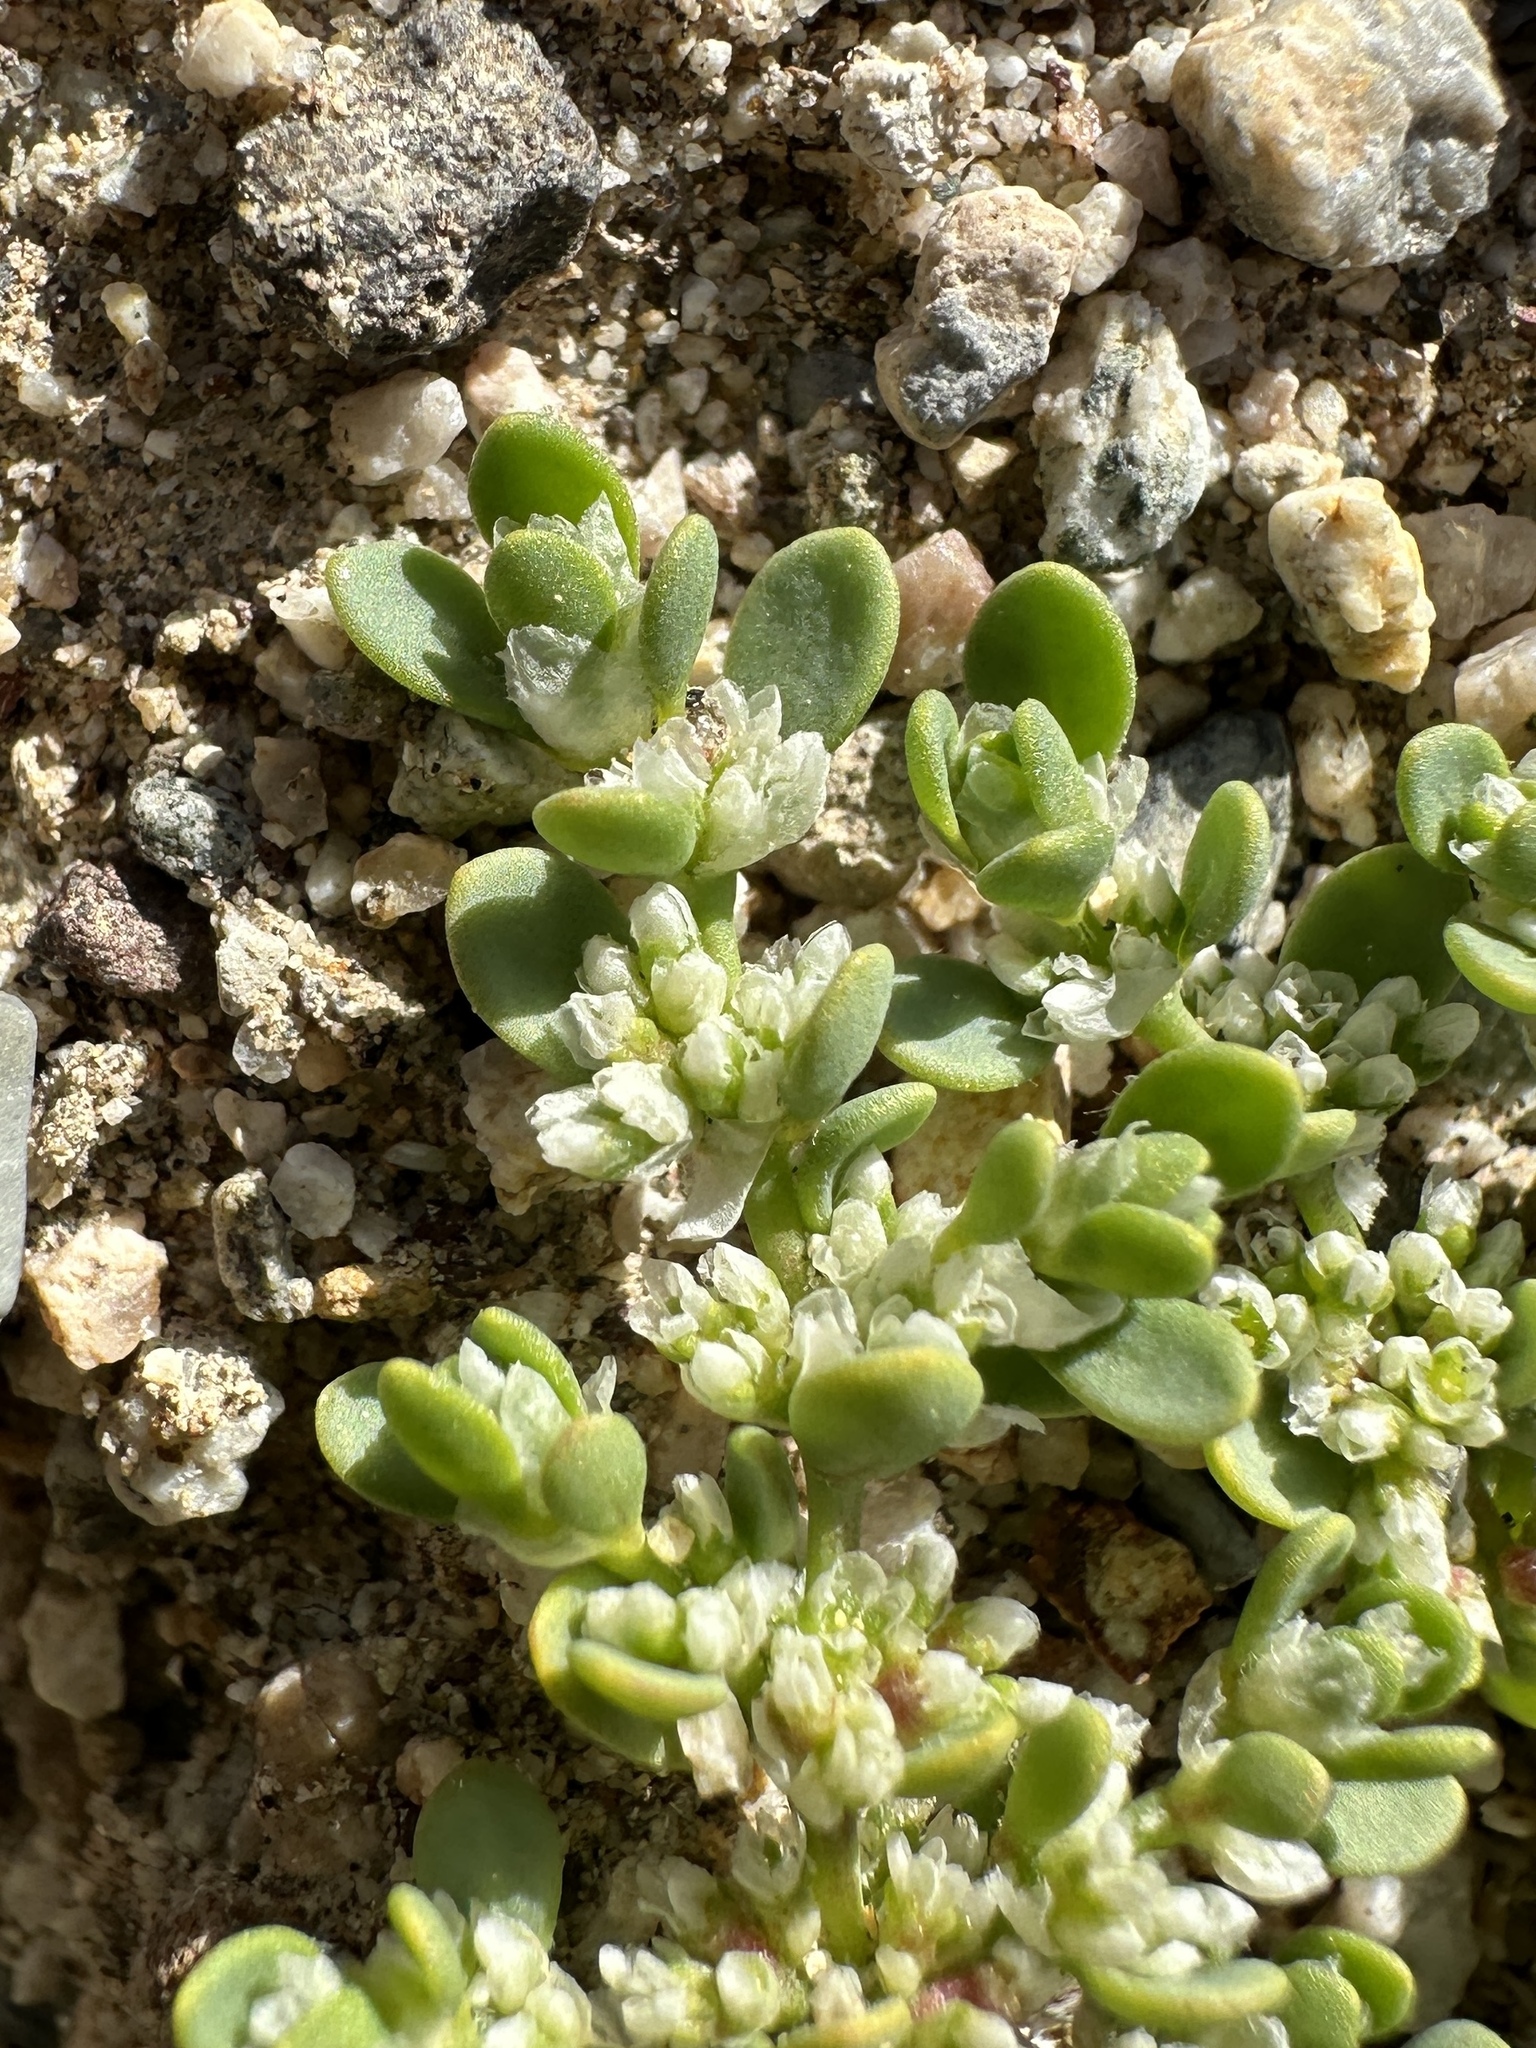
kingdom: Plantae
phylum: Tracheophyta
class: Magnoliopsida
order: Caryophyllales
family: Caryophyllaceae
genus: Achyronychia
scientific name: Achyronychia cooperi
